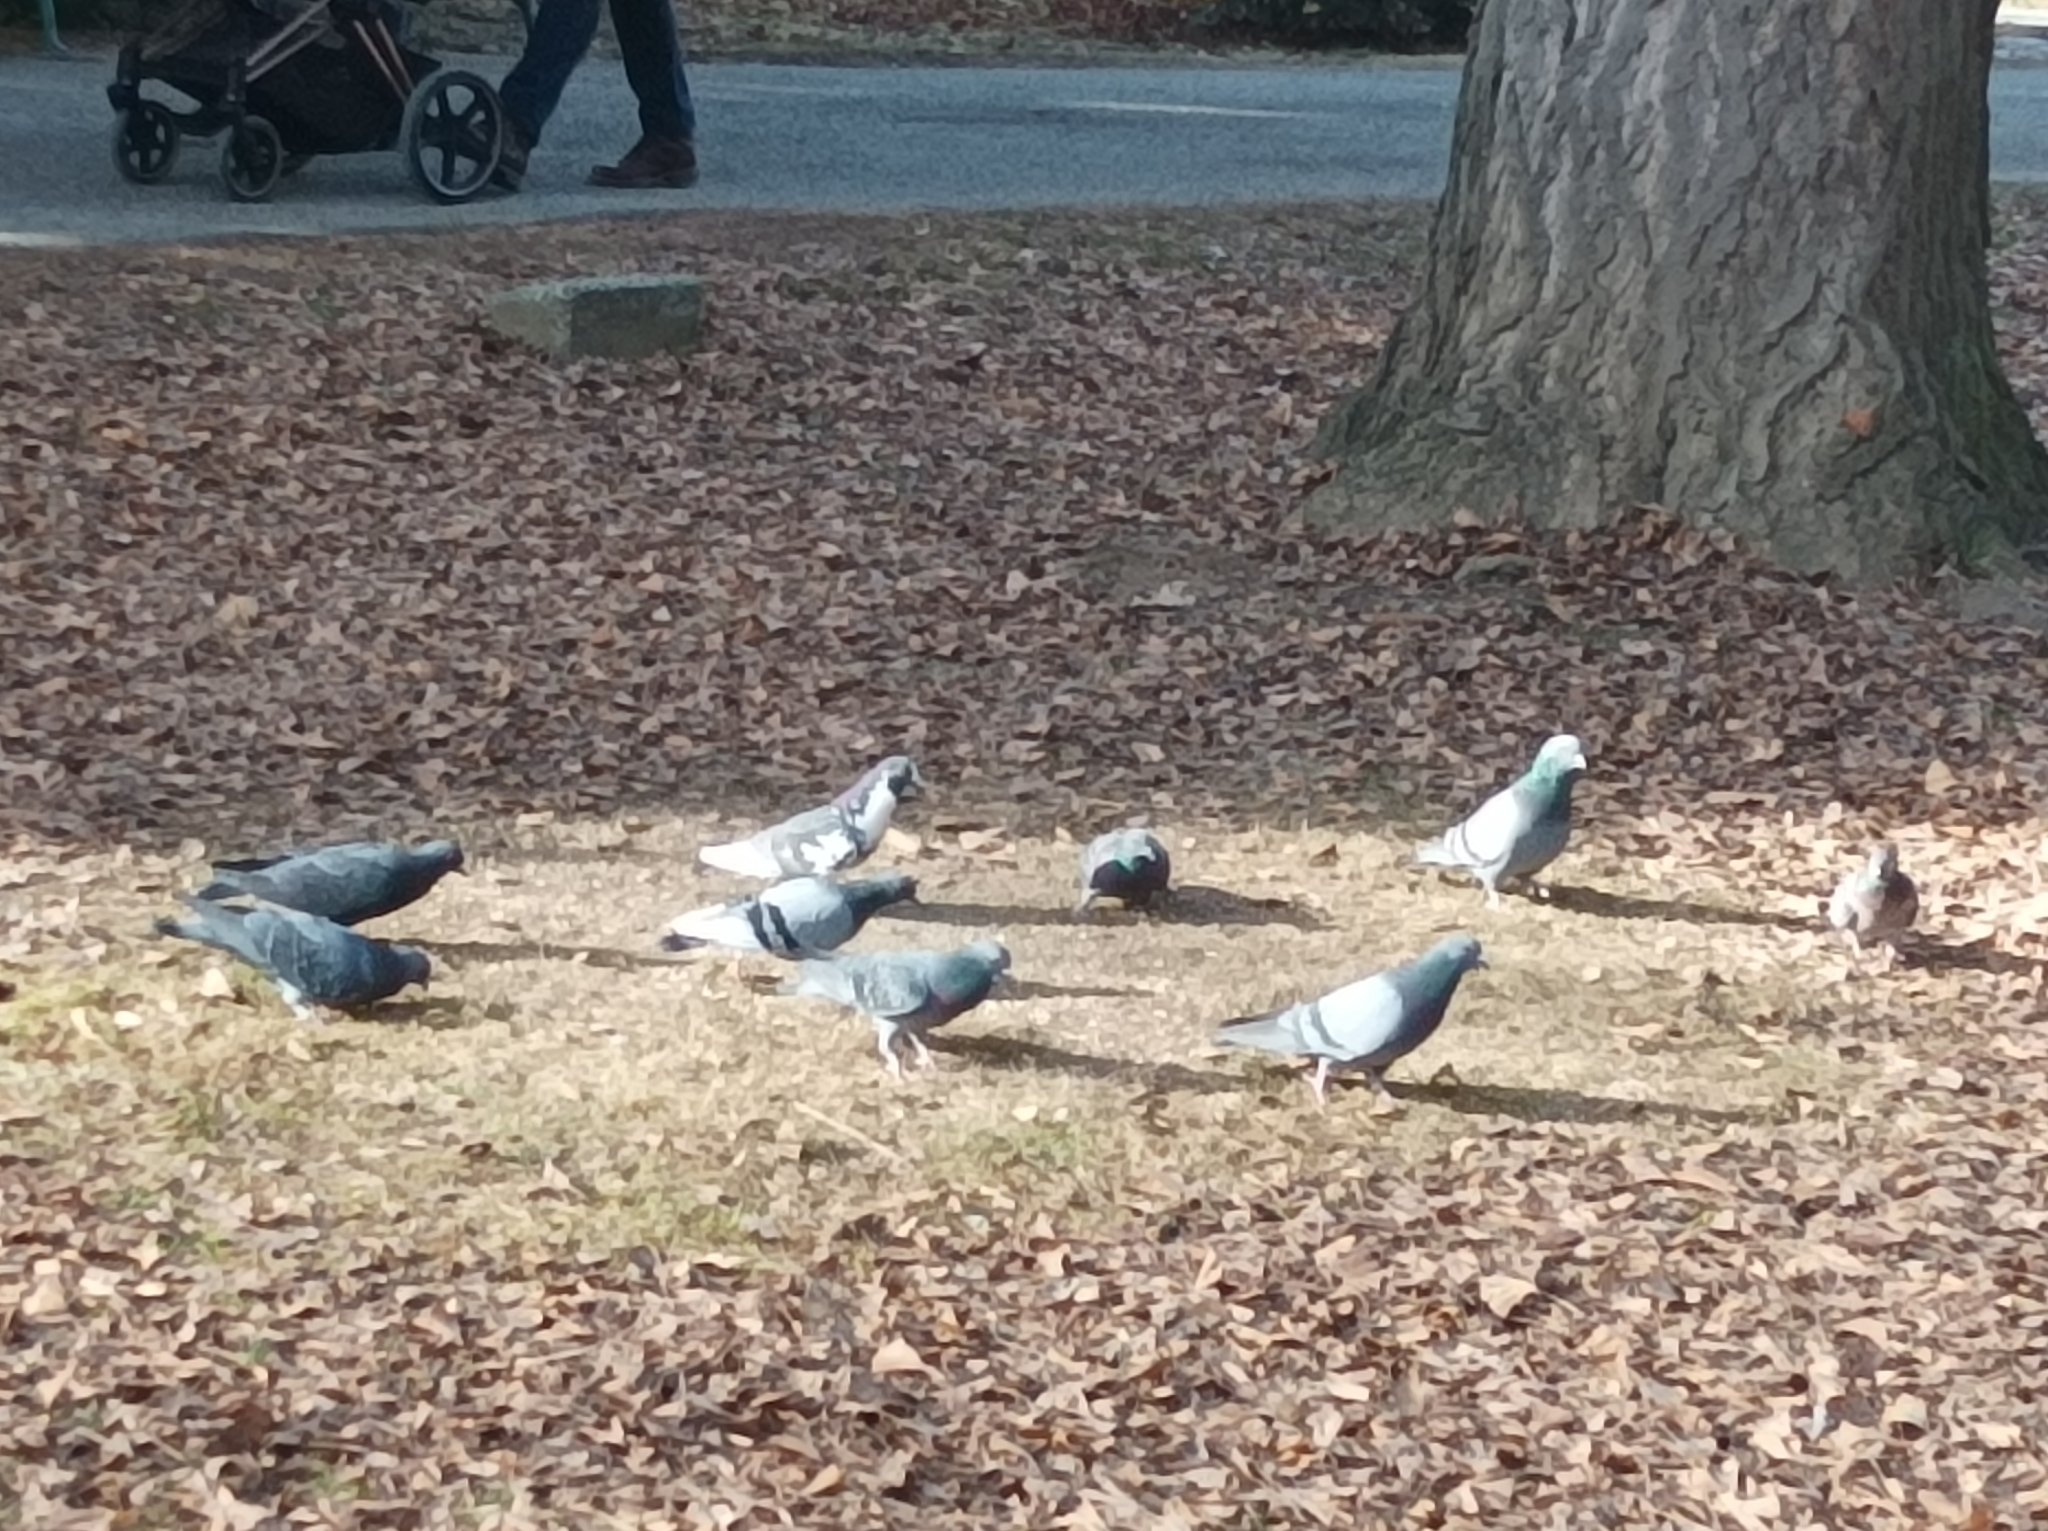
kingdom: Animalia
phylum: Chordata
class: Aves
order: Columbiformes
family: Columbidae
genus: Columba
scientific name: Columba livia
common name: Rock pigeon
